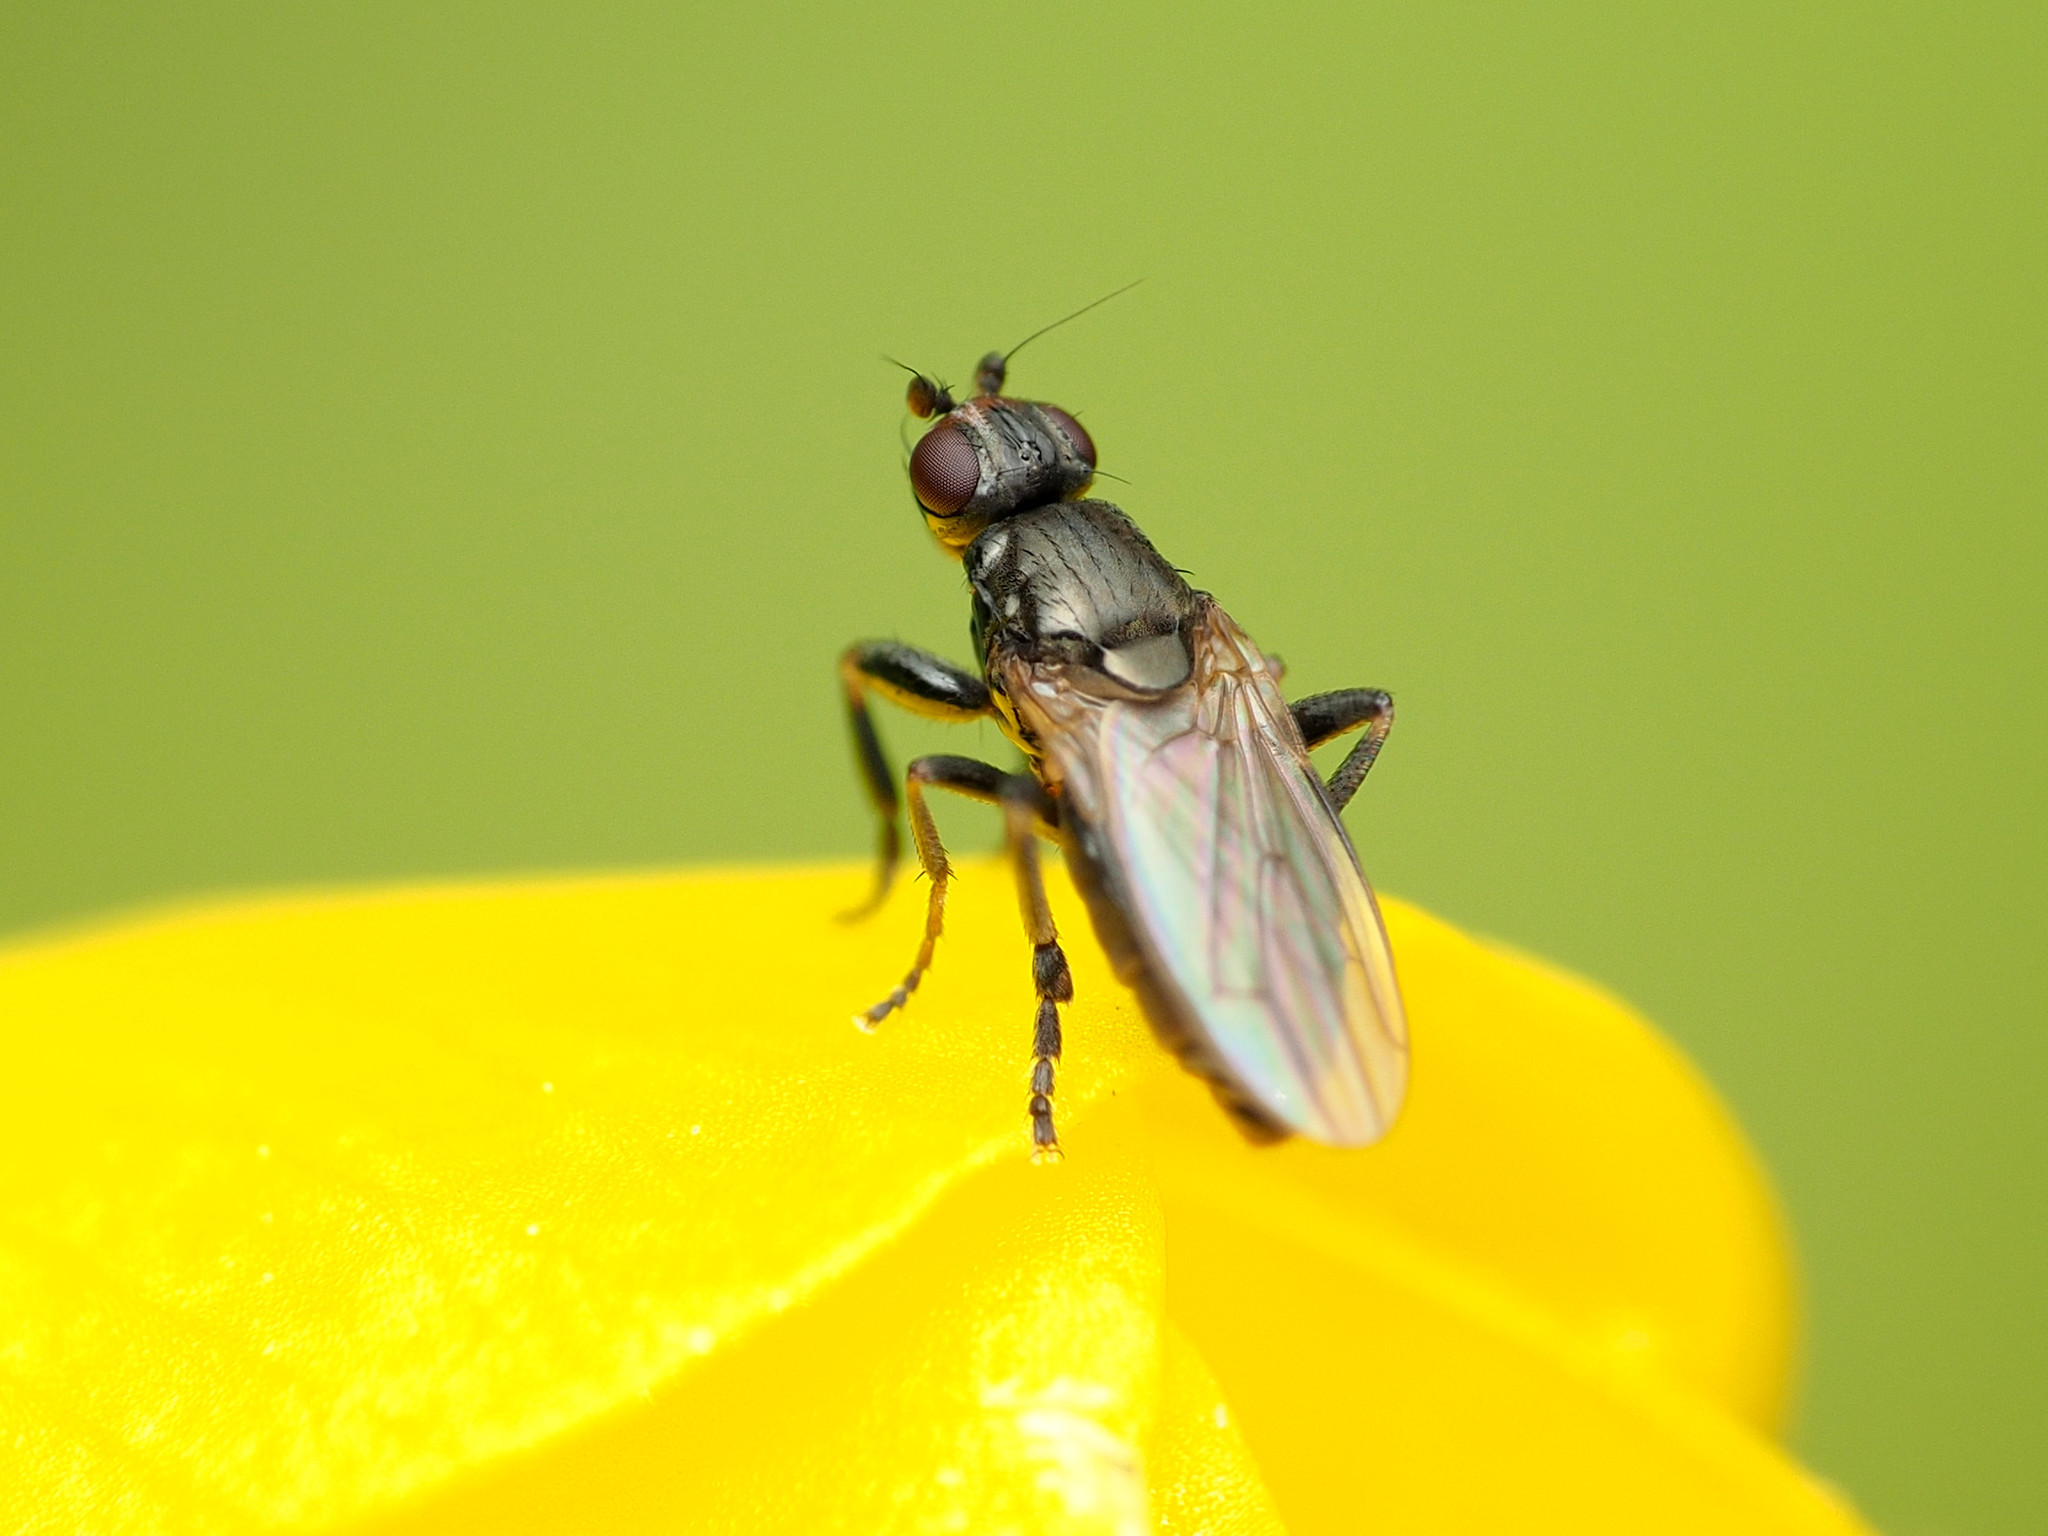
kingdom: Animalia
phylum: Arthropoda
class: Insecta
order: Diptera
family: Sphaeroceridae
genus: Lotophila
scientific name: Lotophila atra
